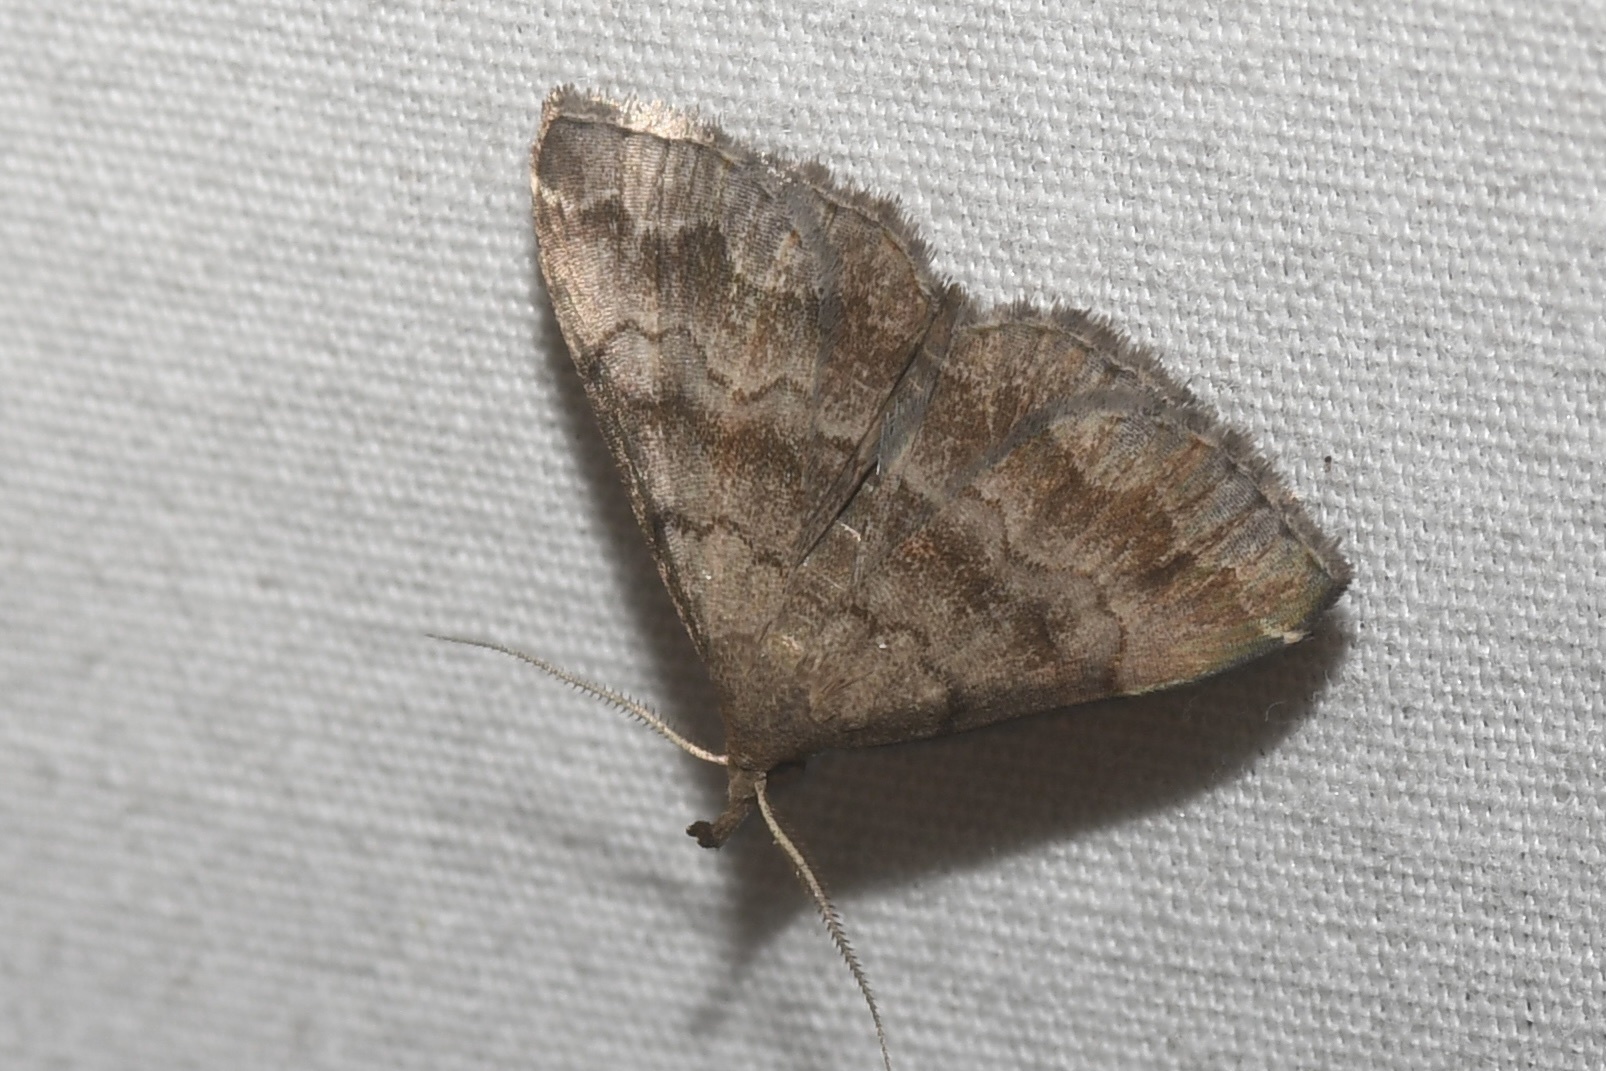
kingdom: Animalia
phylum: Arthropoda
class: Insecta
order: Lepidoptera
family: Erebidae
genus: Phalaenostola
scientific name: Phalaenostola larentioides
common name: Black-banded owlet
